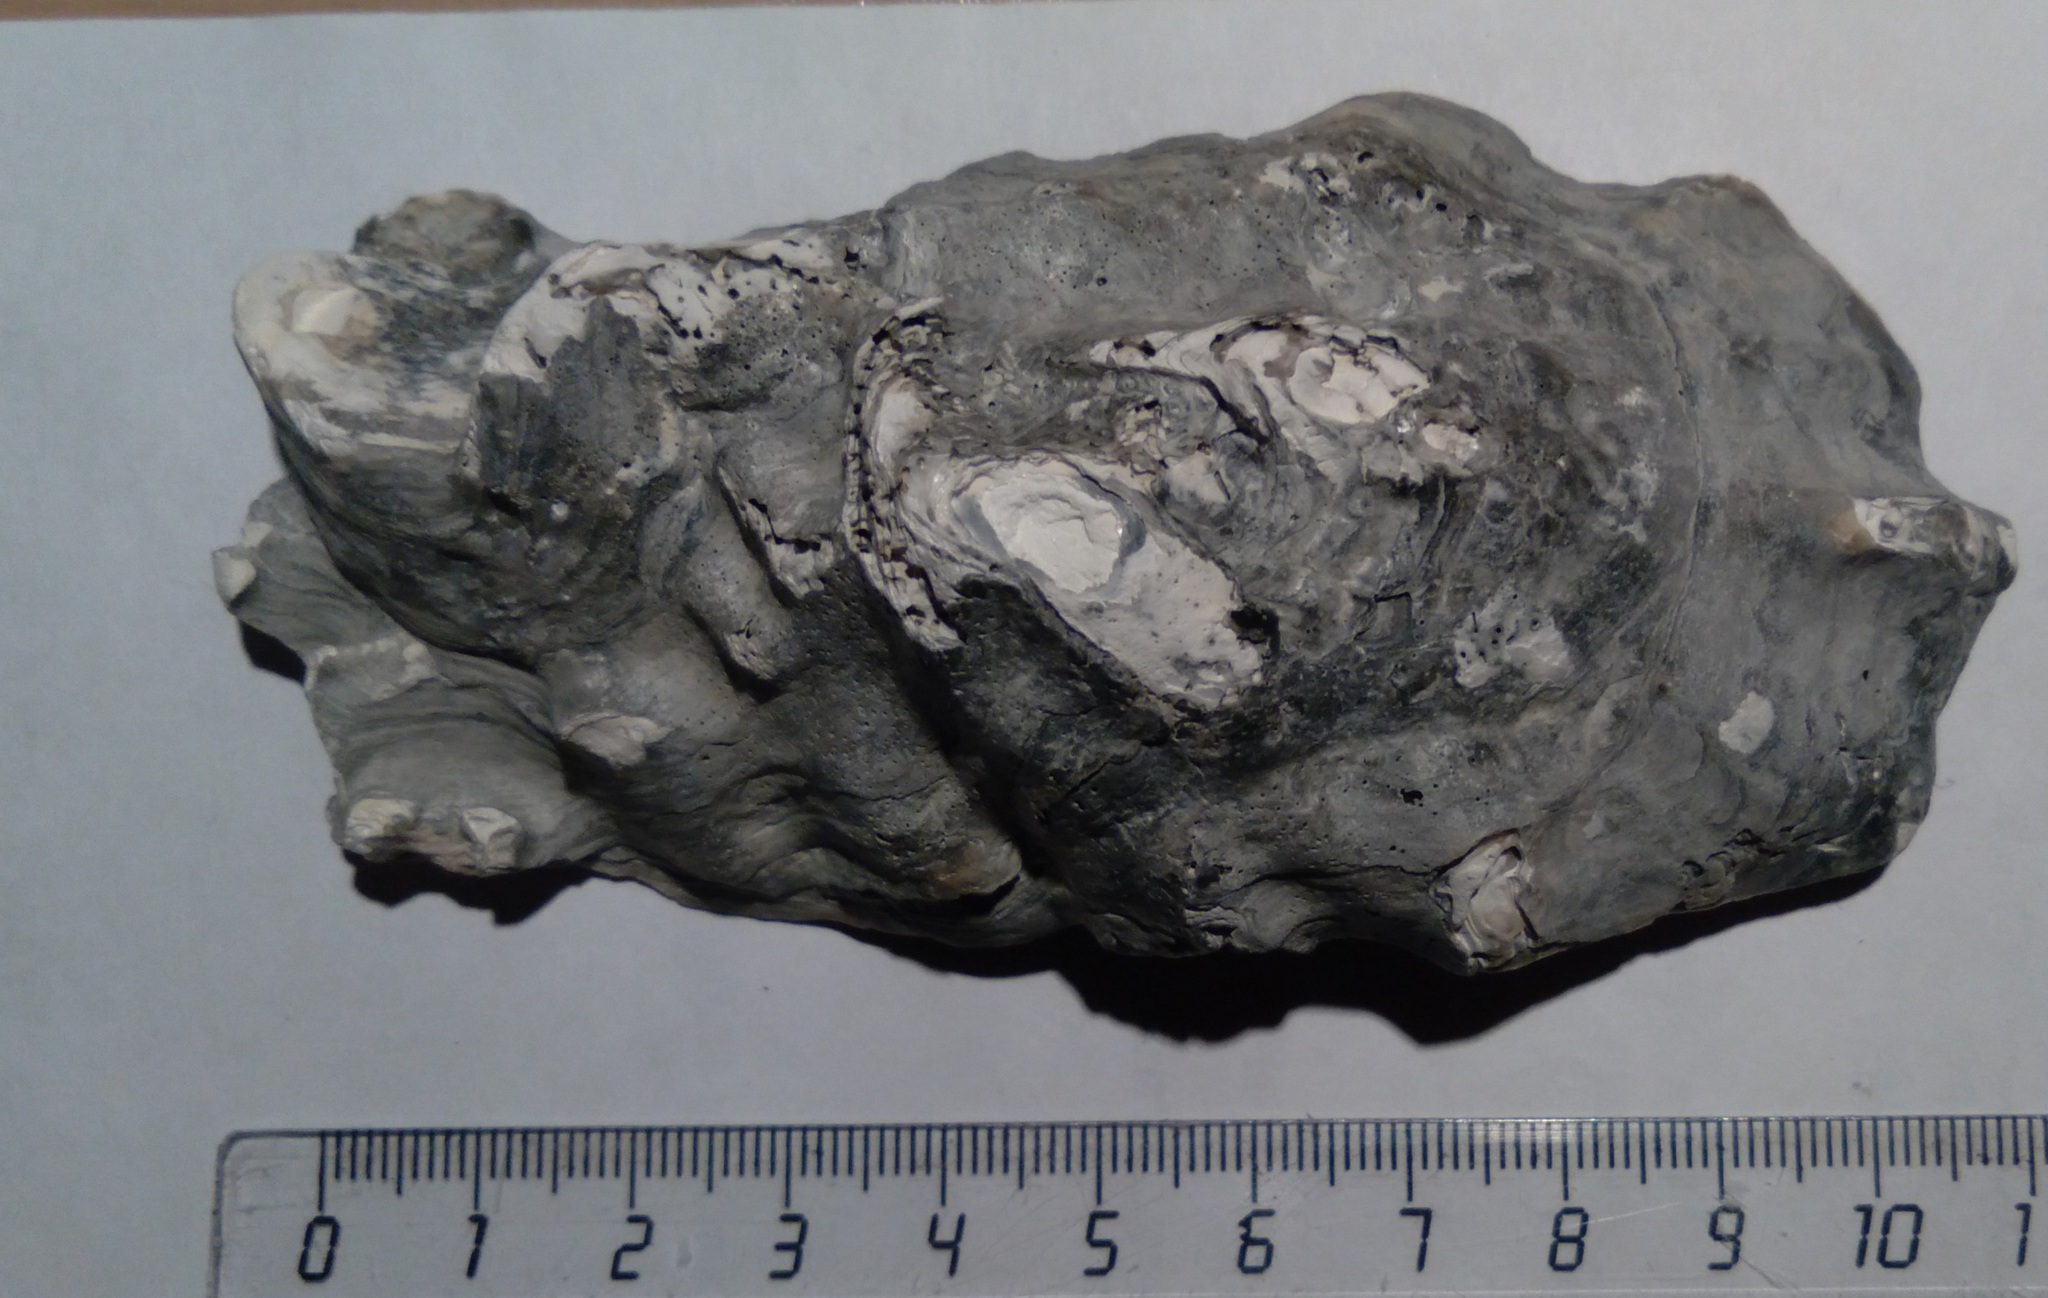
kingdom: Animalia
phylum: Mollusca
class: Bivalvia
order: Ostreida
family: Ostreidae
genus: Magallana
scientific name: Magallana gigas
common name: Pacific oyster
